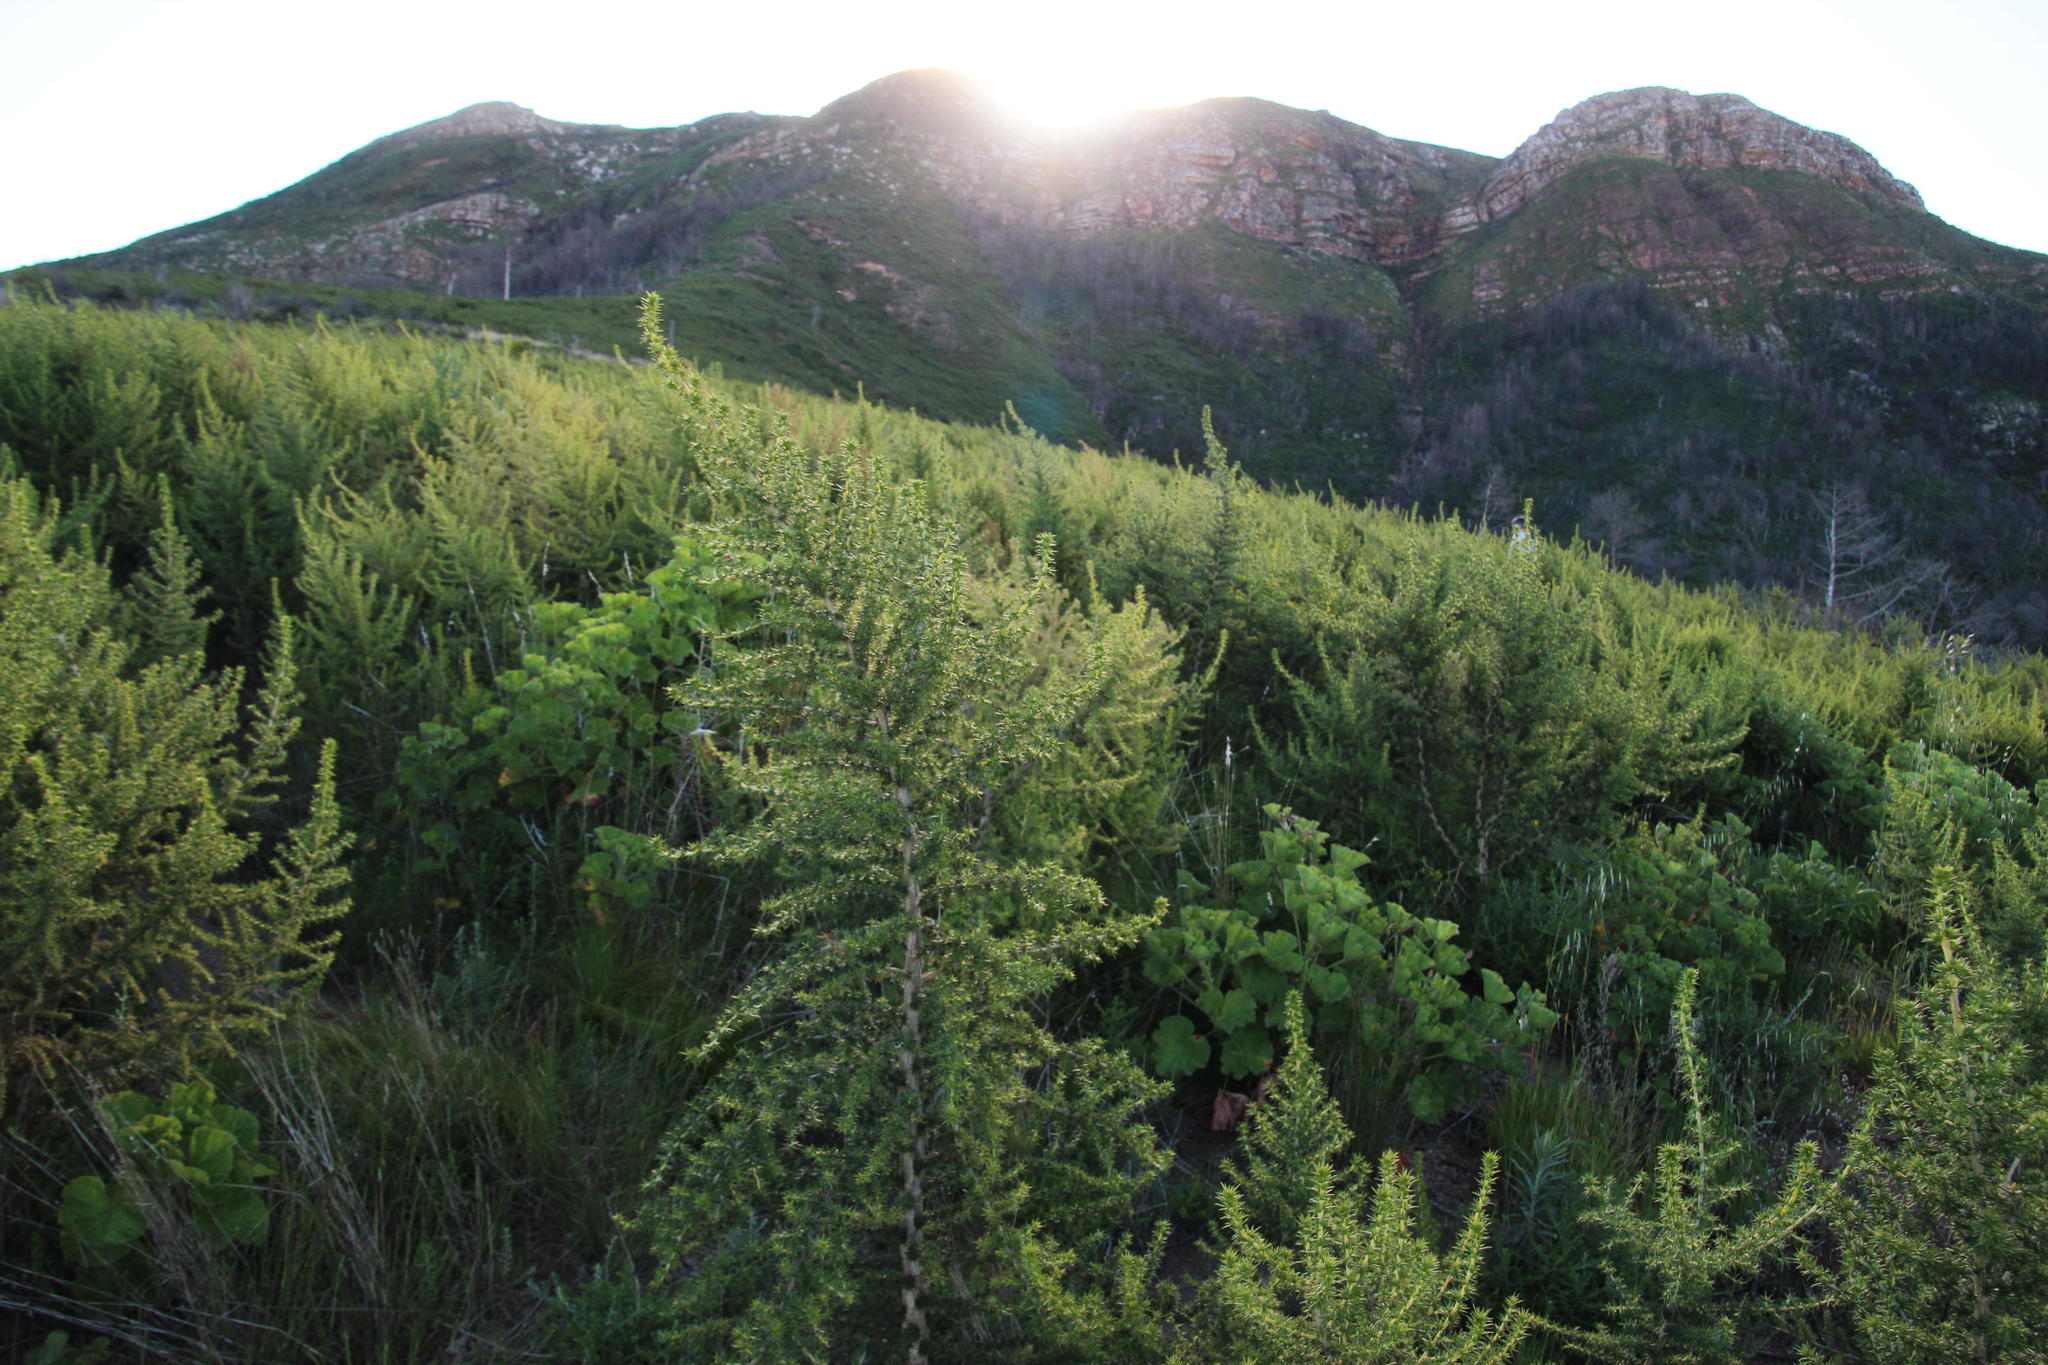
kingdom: Plantae
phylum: Tracheophyta
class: Magnoliopsida
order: Fabales
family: Fabaceae
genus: Aspalathus
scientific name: Aspalathus astroites
